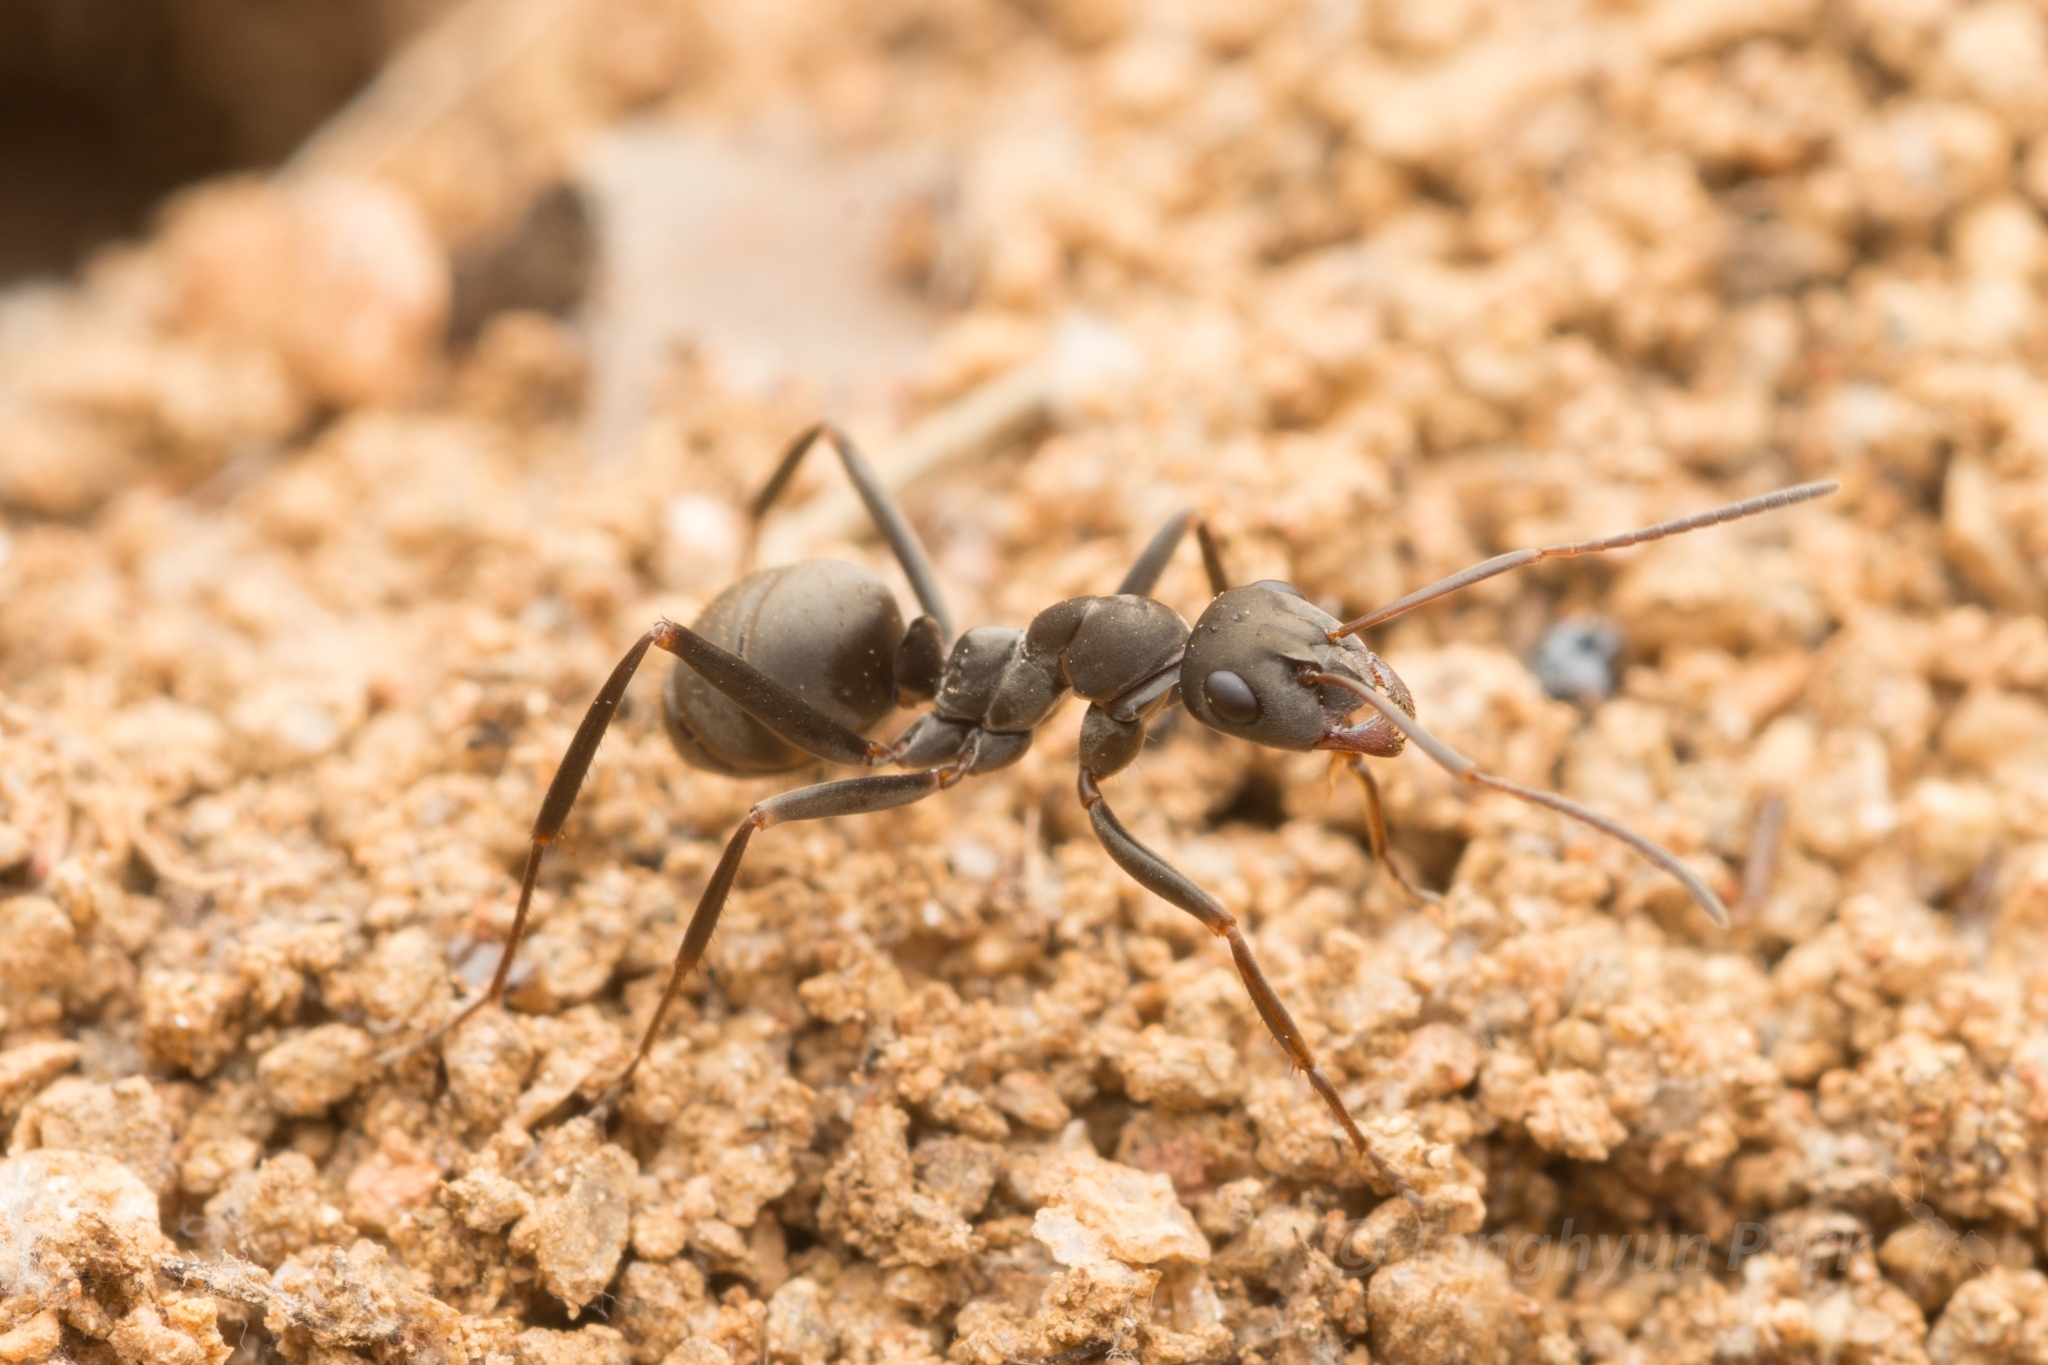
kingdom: Animalia
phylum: Arthropoda
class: Insecta
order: Hymenoptera
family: Formicidae
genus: Formica
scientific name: Formica japonica
